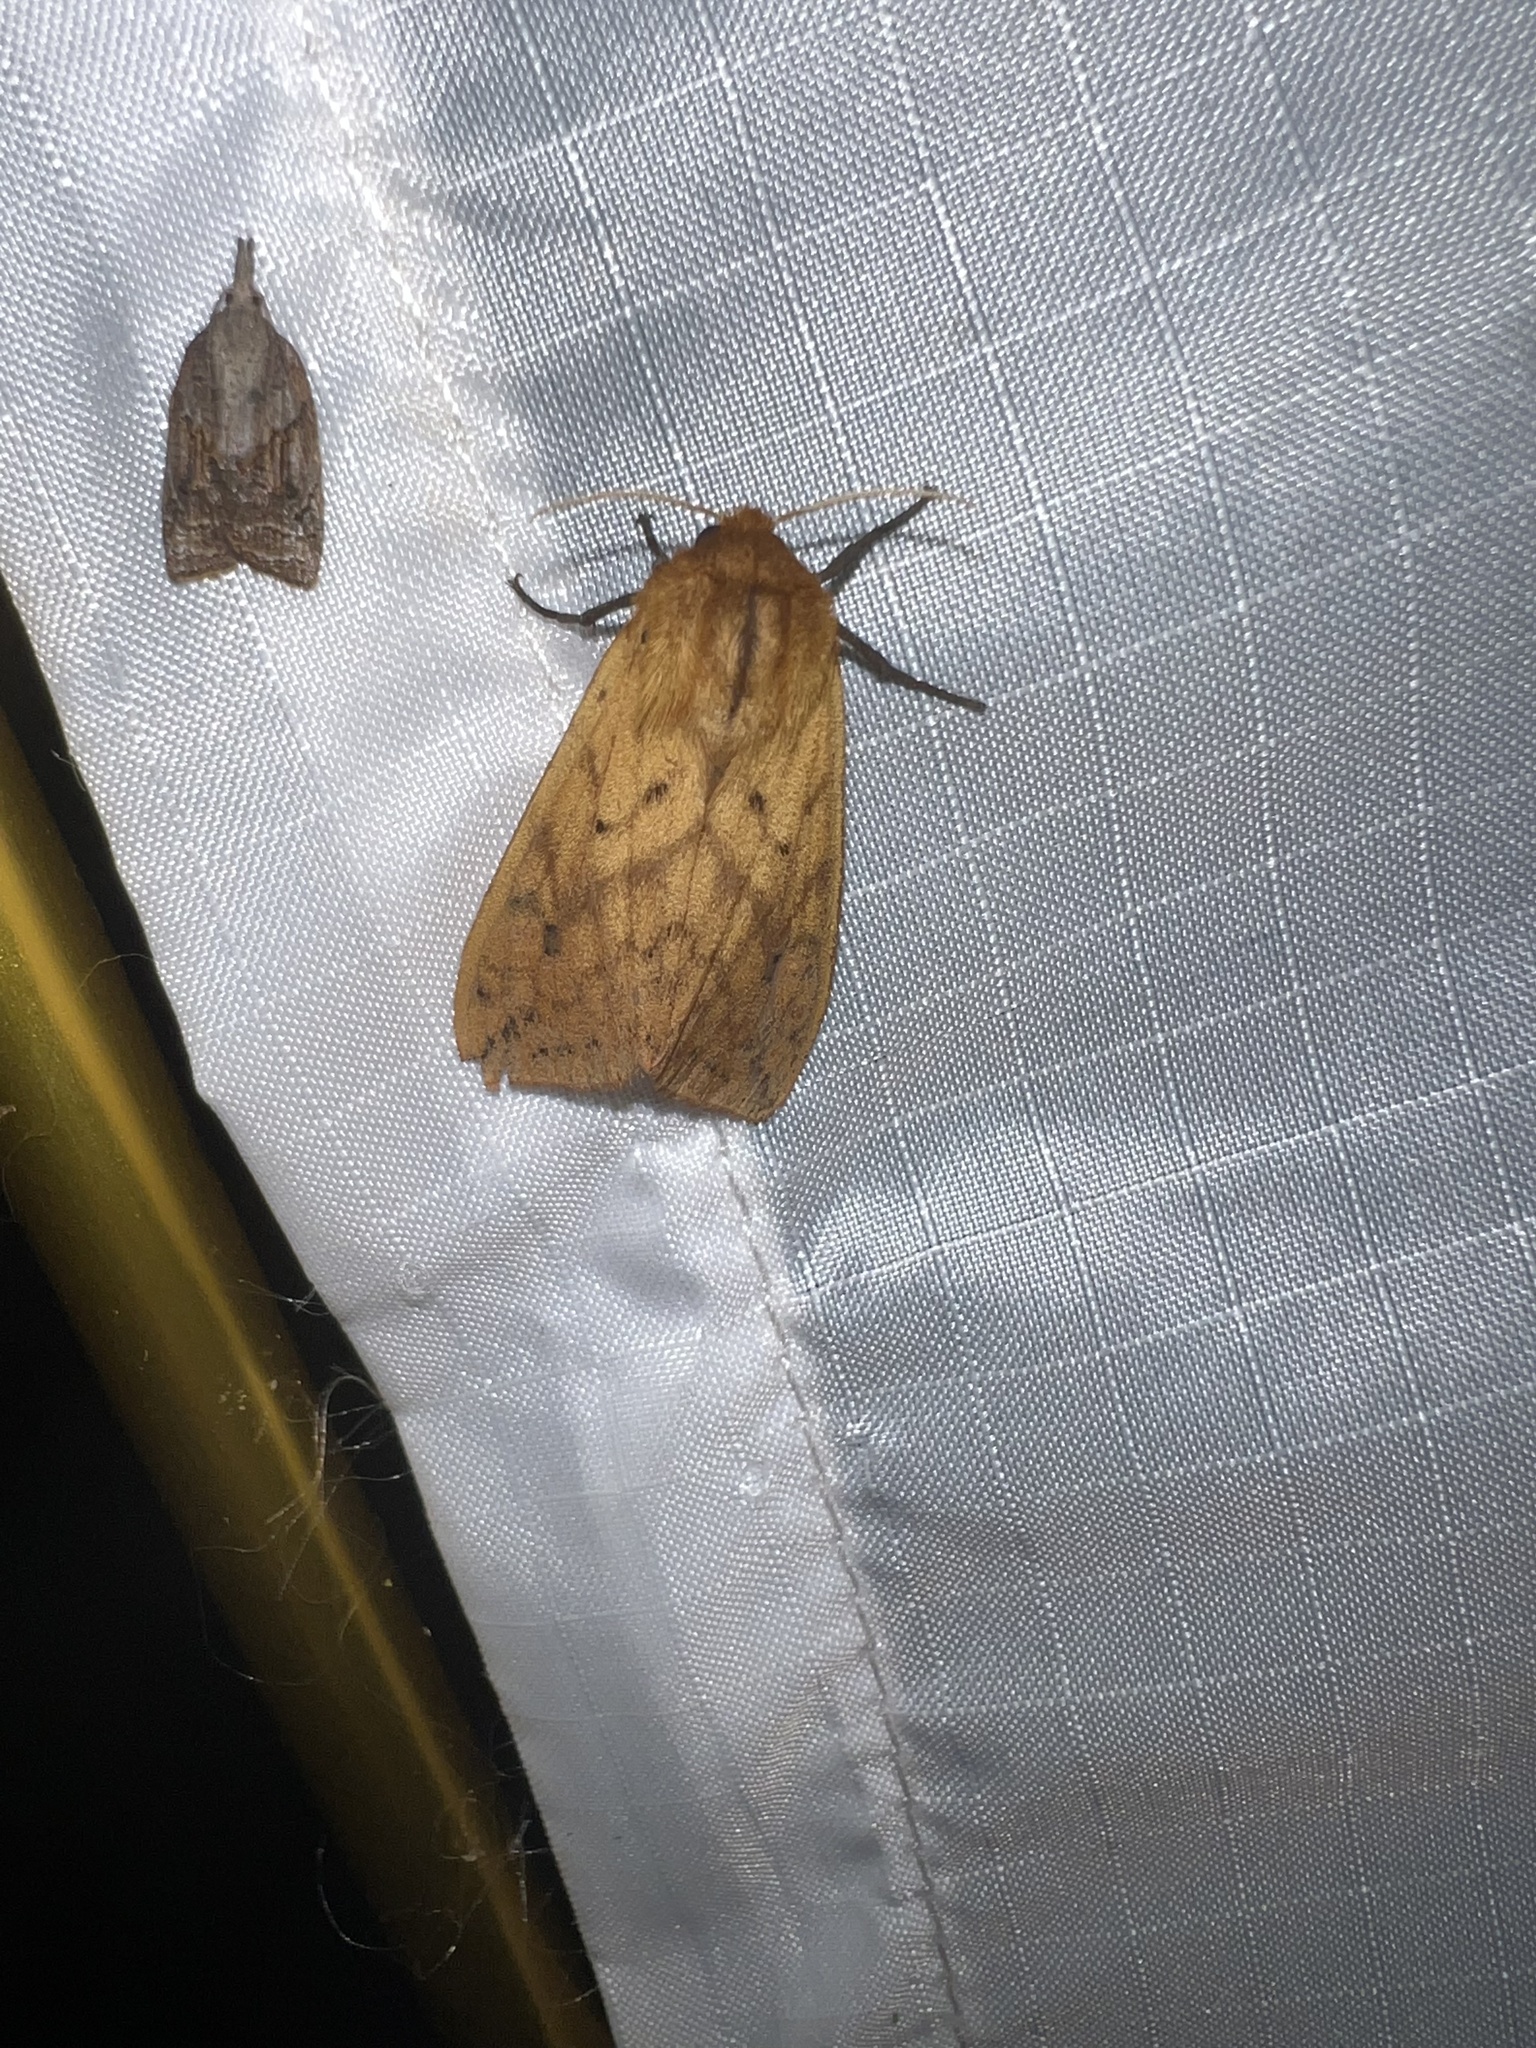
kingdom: Animalia
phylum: Arthropoda
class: Insecta
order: Lepidoptera
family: Erebidae
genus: Pyrrharctia
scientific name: Pyrrharctia isabella
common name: Isabella tiger moth
